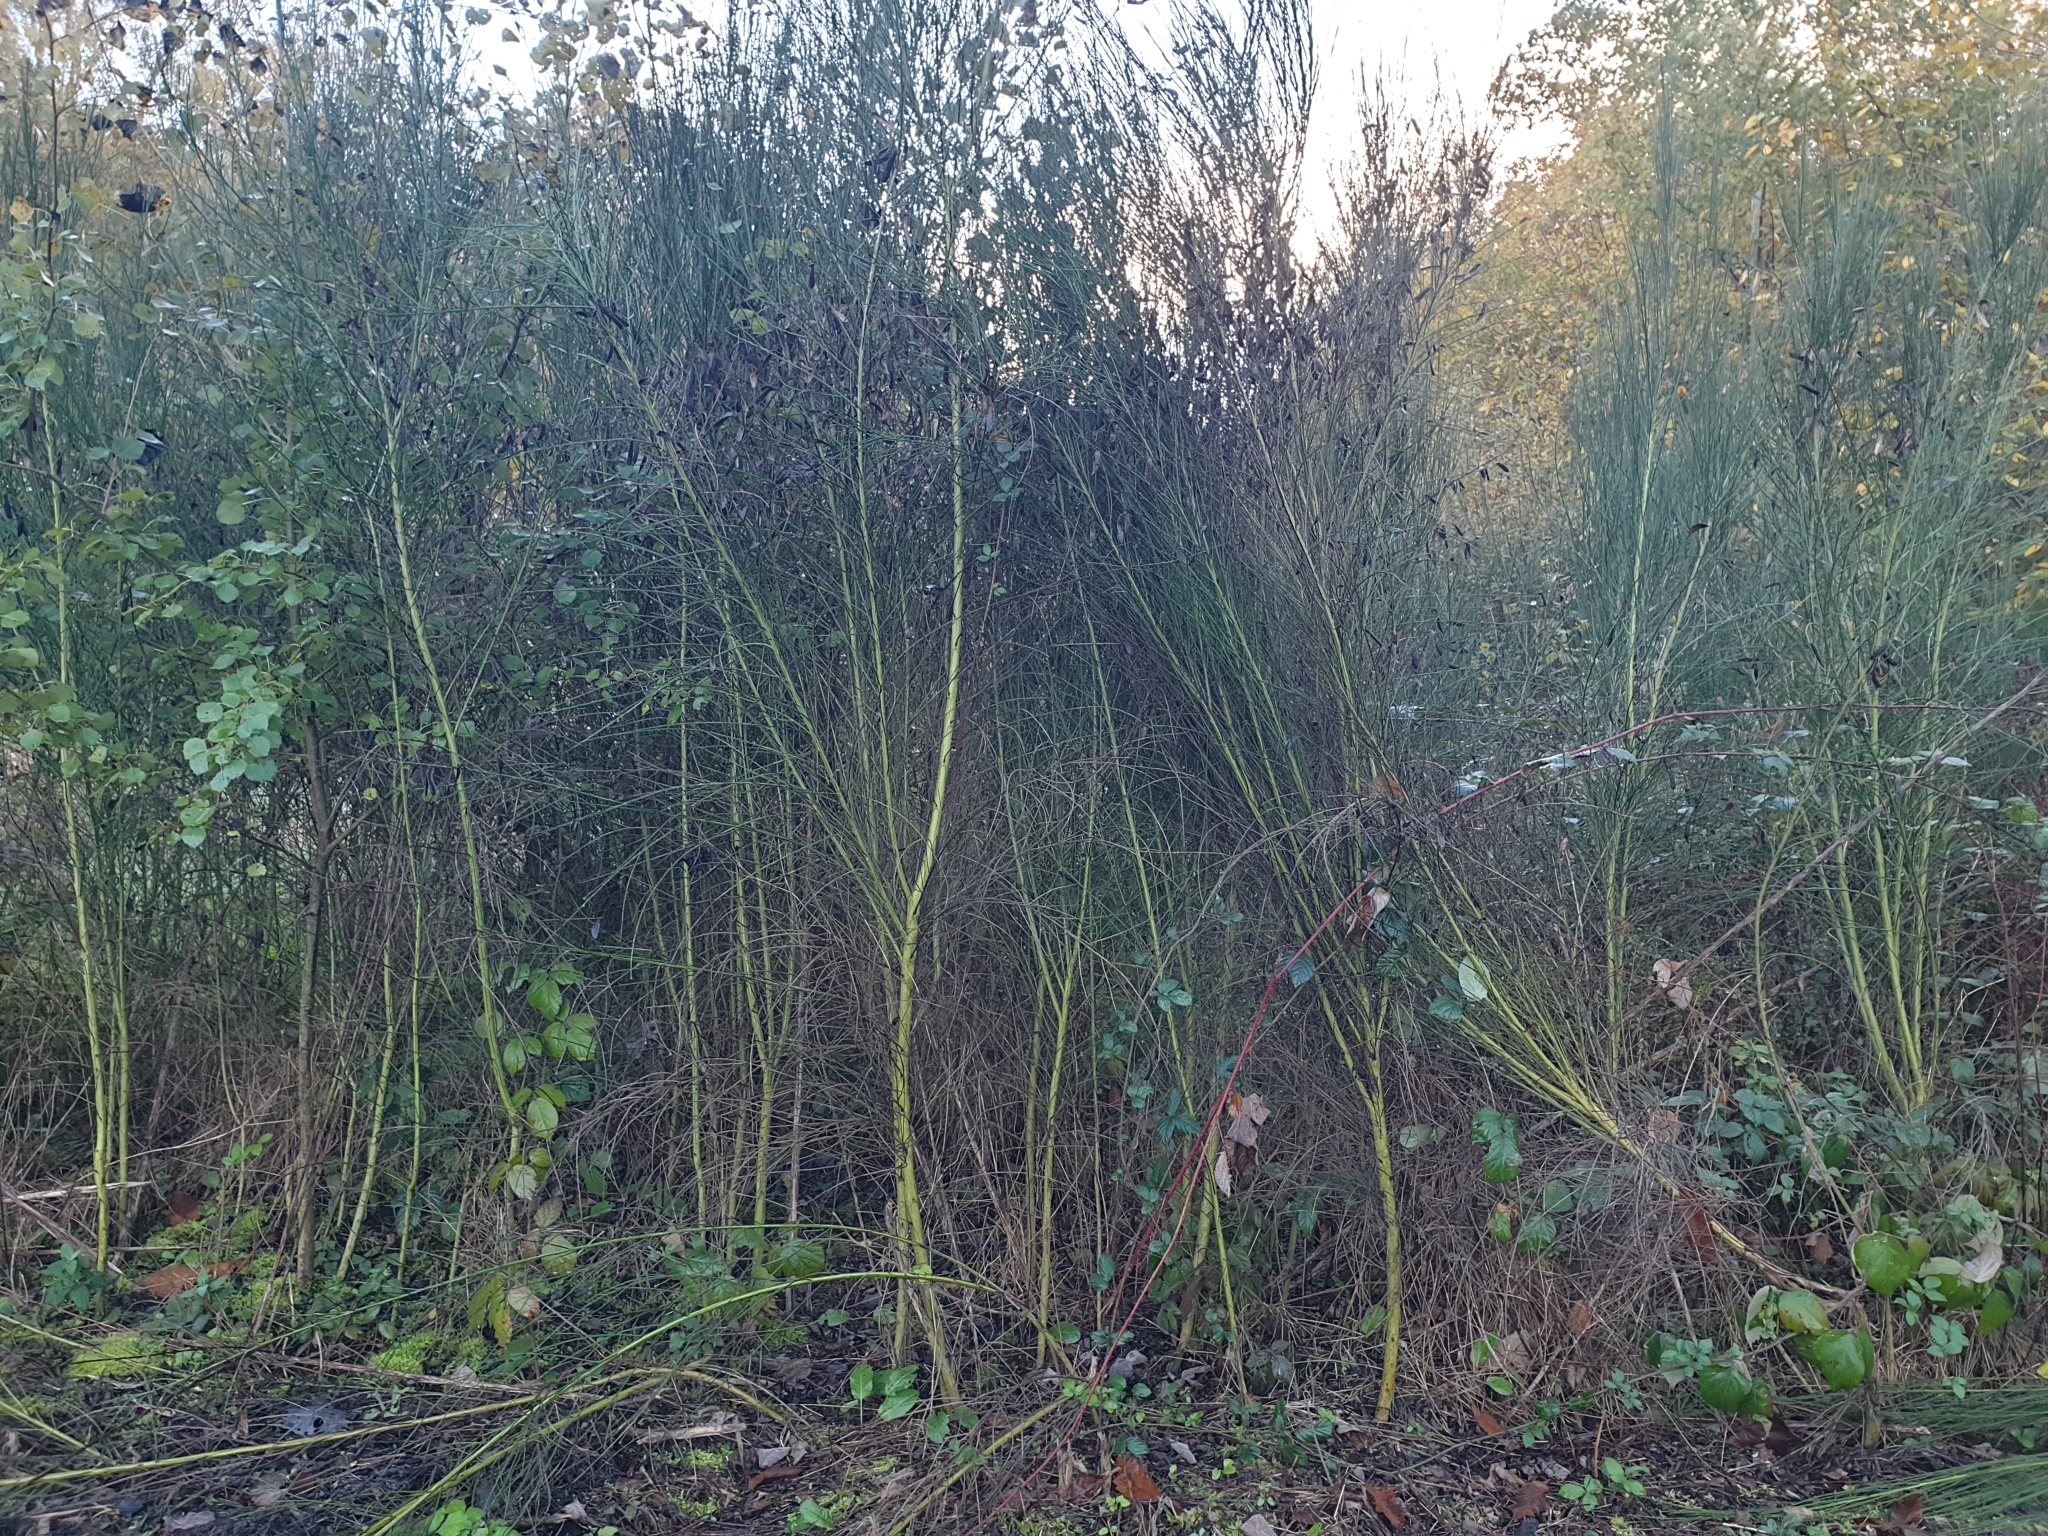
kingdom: Plantae
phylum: Tracheophyta
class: Magnoliopsida
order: Fabales
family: Fabaceae
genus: Cytisus
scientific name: Cytisus scoparius
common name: Scotch broom
